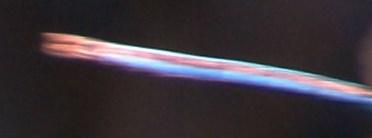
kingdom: Animalia
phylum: Arthropoda
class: Insecta
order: Odonata
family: Aeshnidae
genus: Anax
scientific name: Anax imperator
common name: Emperor dragonfly
